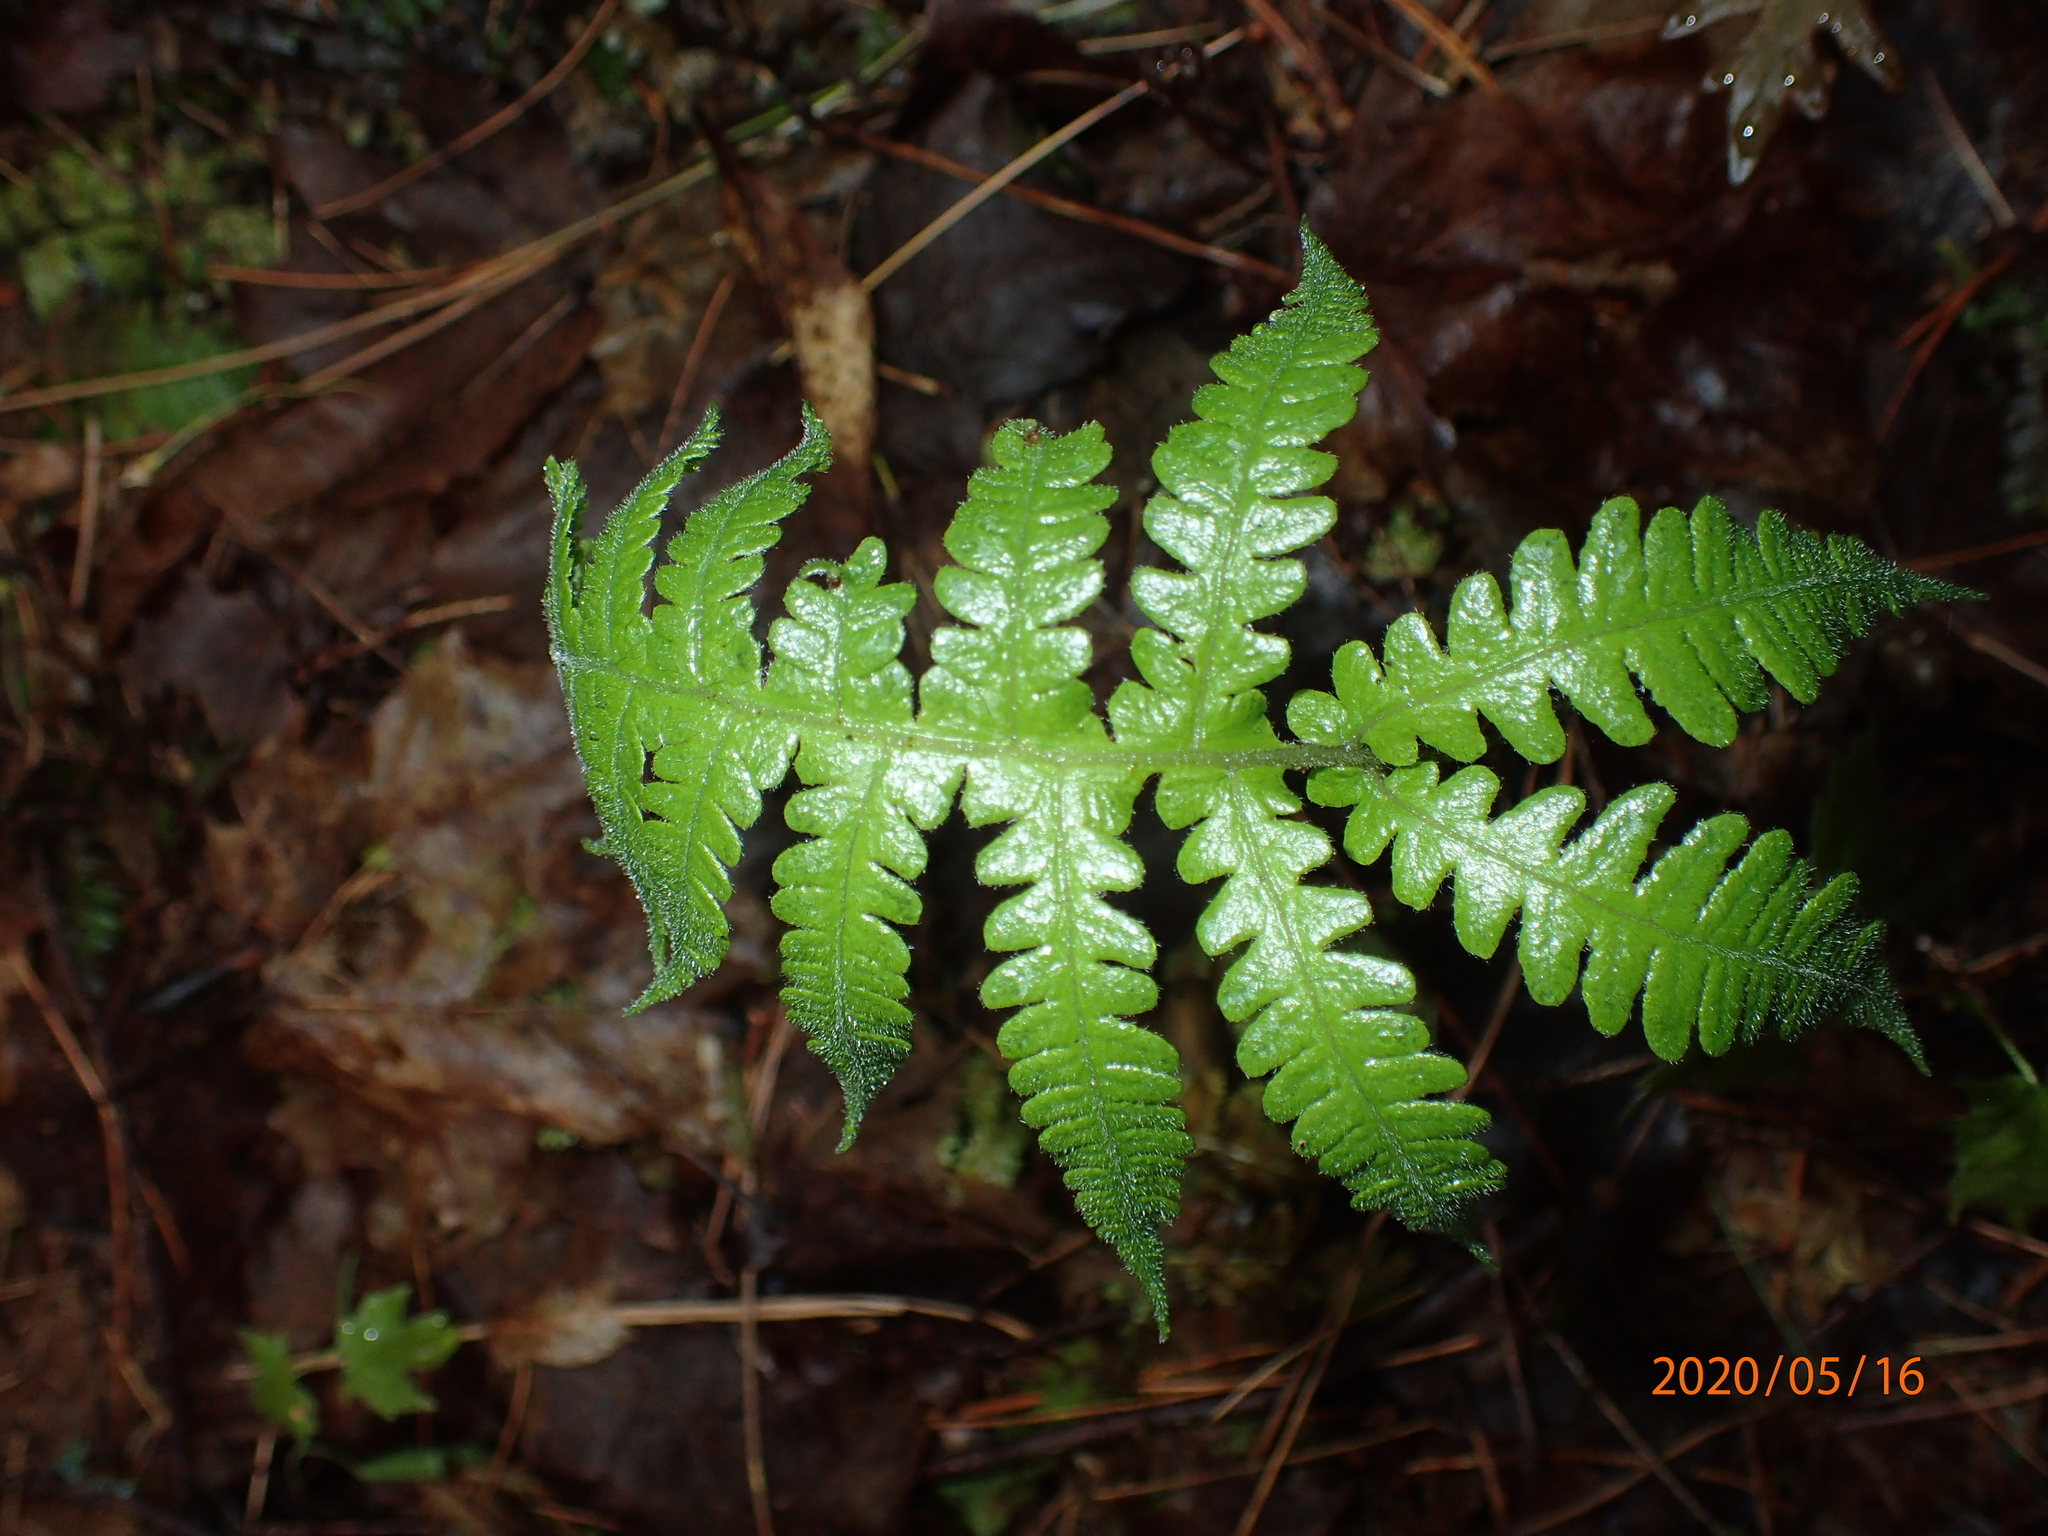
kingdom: Plantae
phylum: Tracheophyta
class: Polypodiopsida
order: Polypodiales
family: Thelypteridaceae
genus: Phegopteris
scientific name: Phegopteris connectilis
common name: Beech fern
